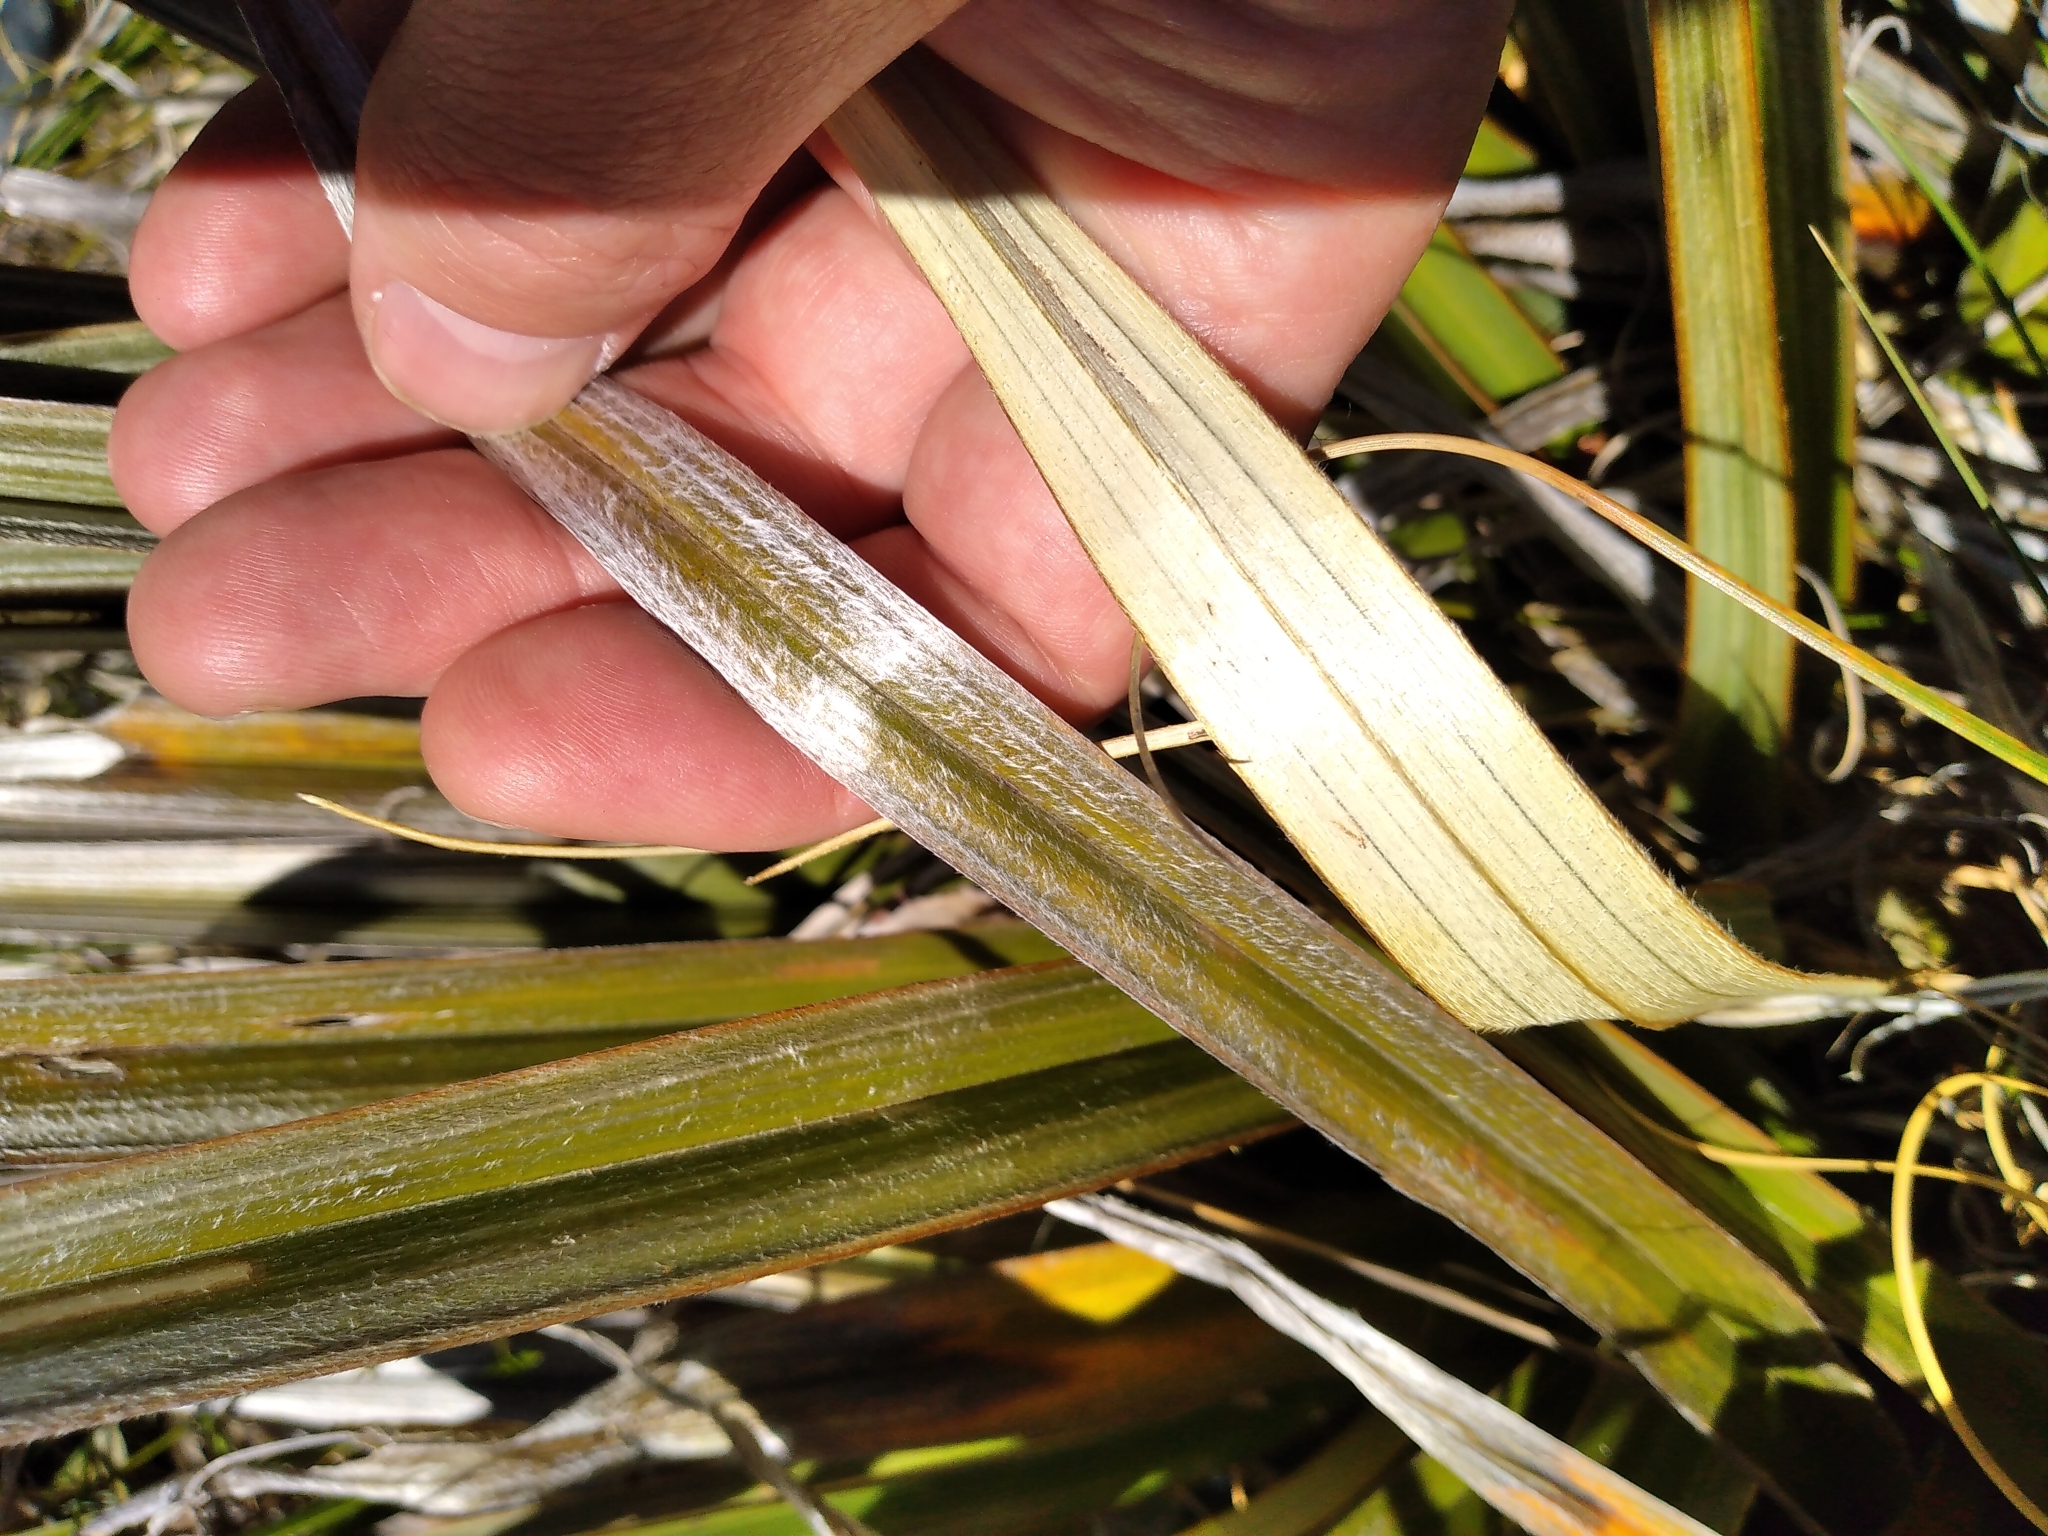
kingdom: Plantae
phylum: Tracheophyta
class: Liliopsida
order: Asparagales
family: Asteliaceae
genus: Astelia
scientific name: Astelia nivicola
